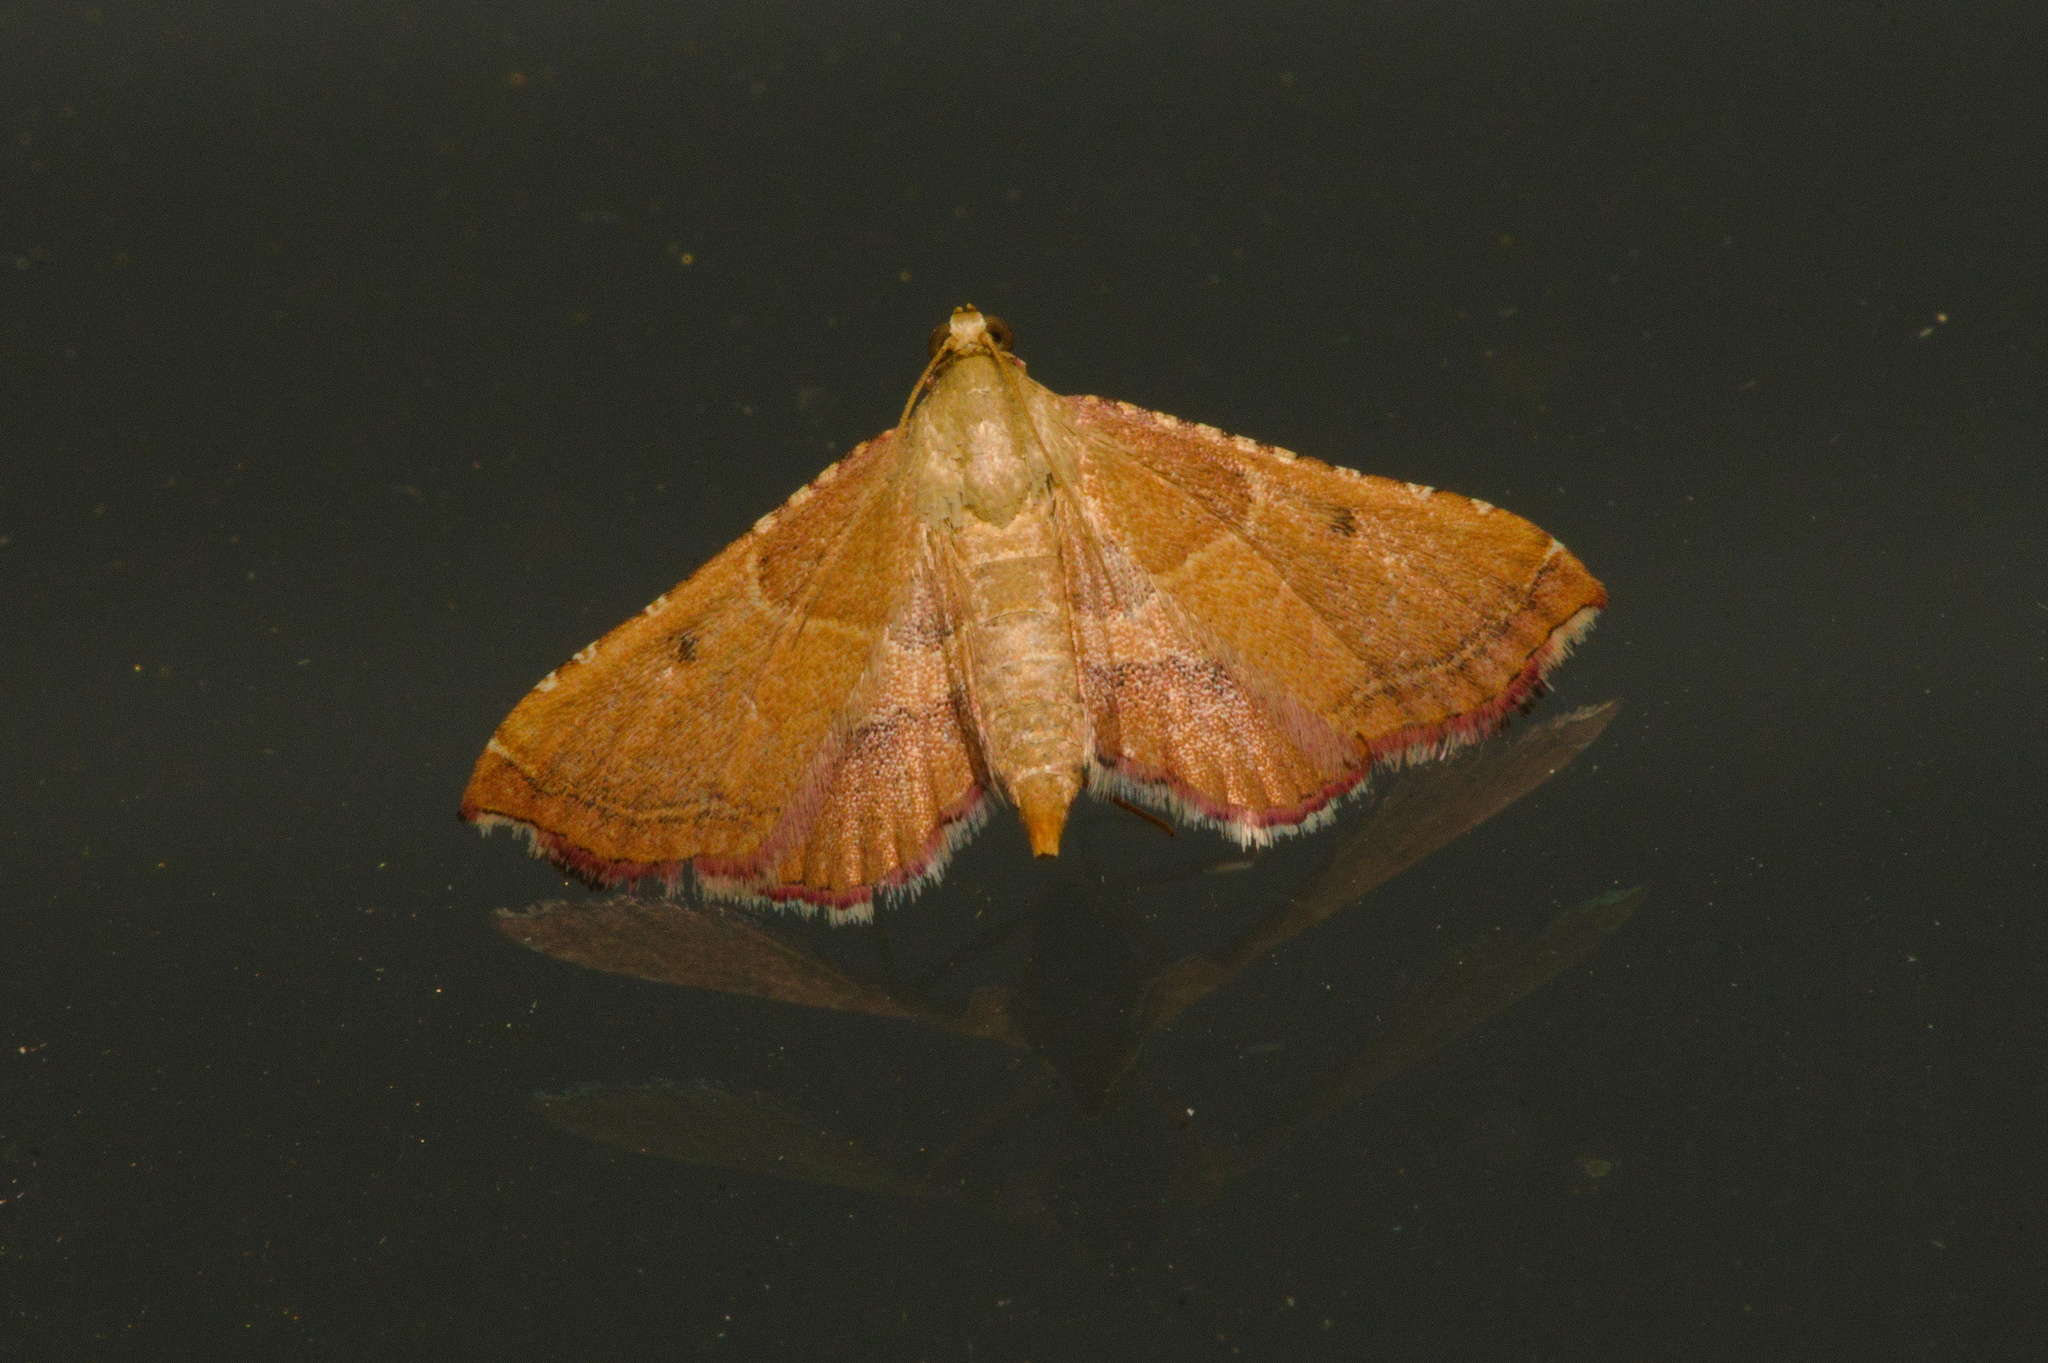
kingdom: Animalia
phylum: Arthropoda
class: Insecta
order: Lepidoptera
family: Pyralidae
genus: Endotricha
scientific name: Endotricha flammealis
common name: Rosy tabby
